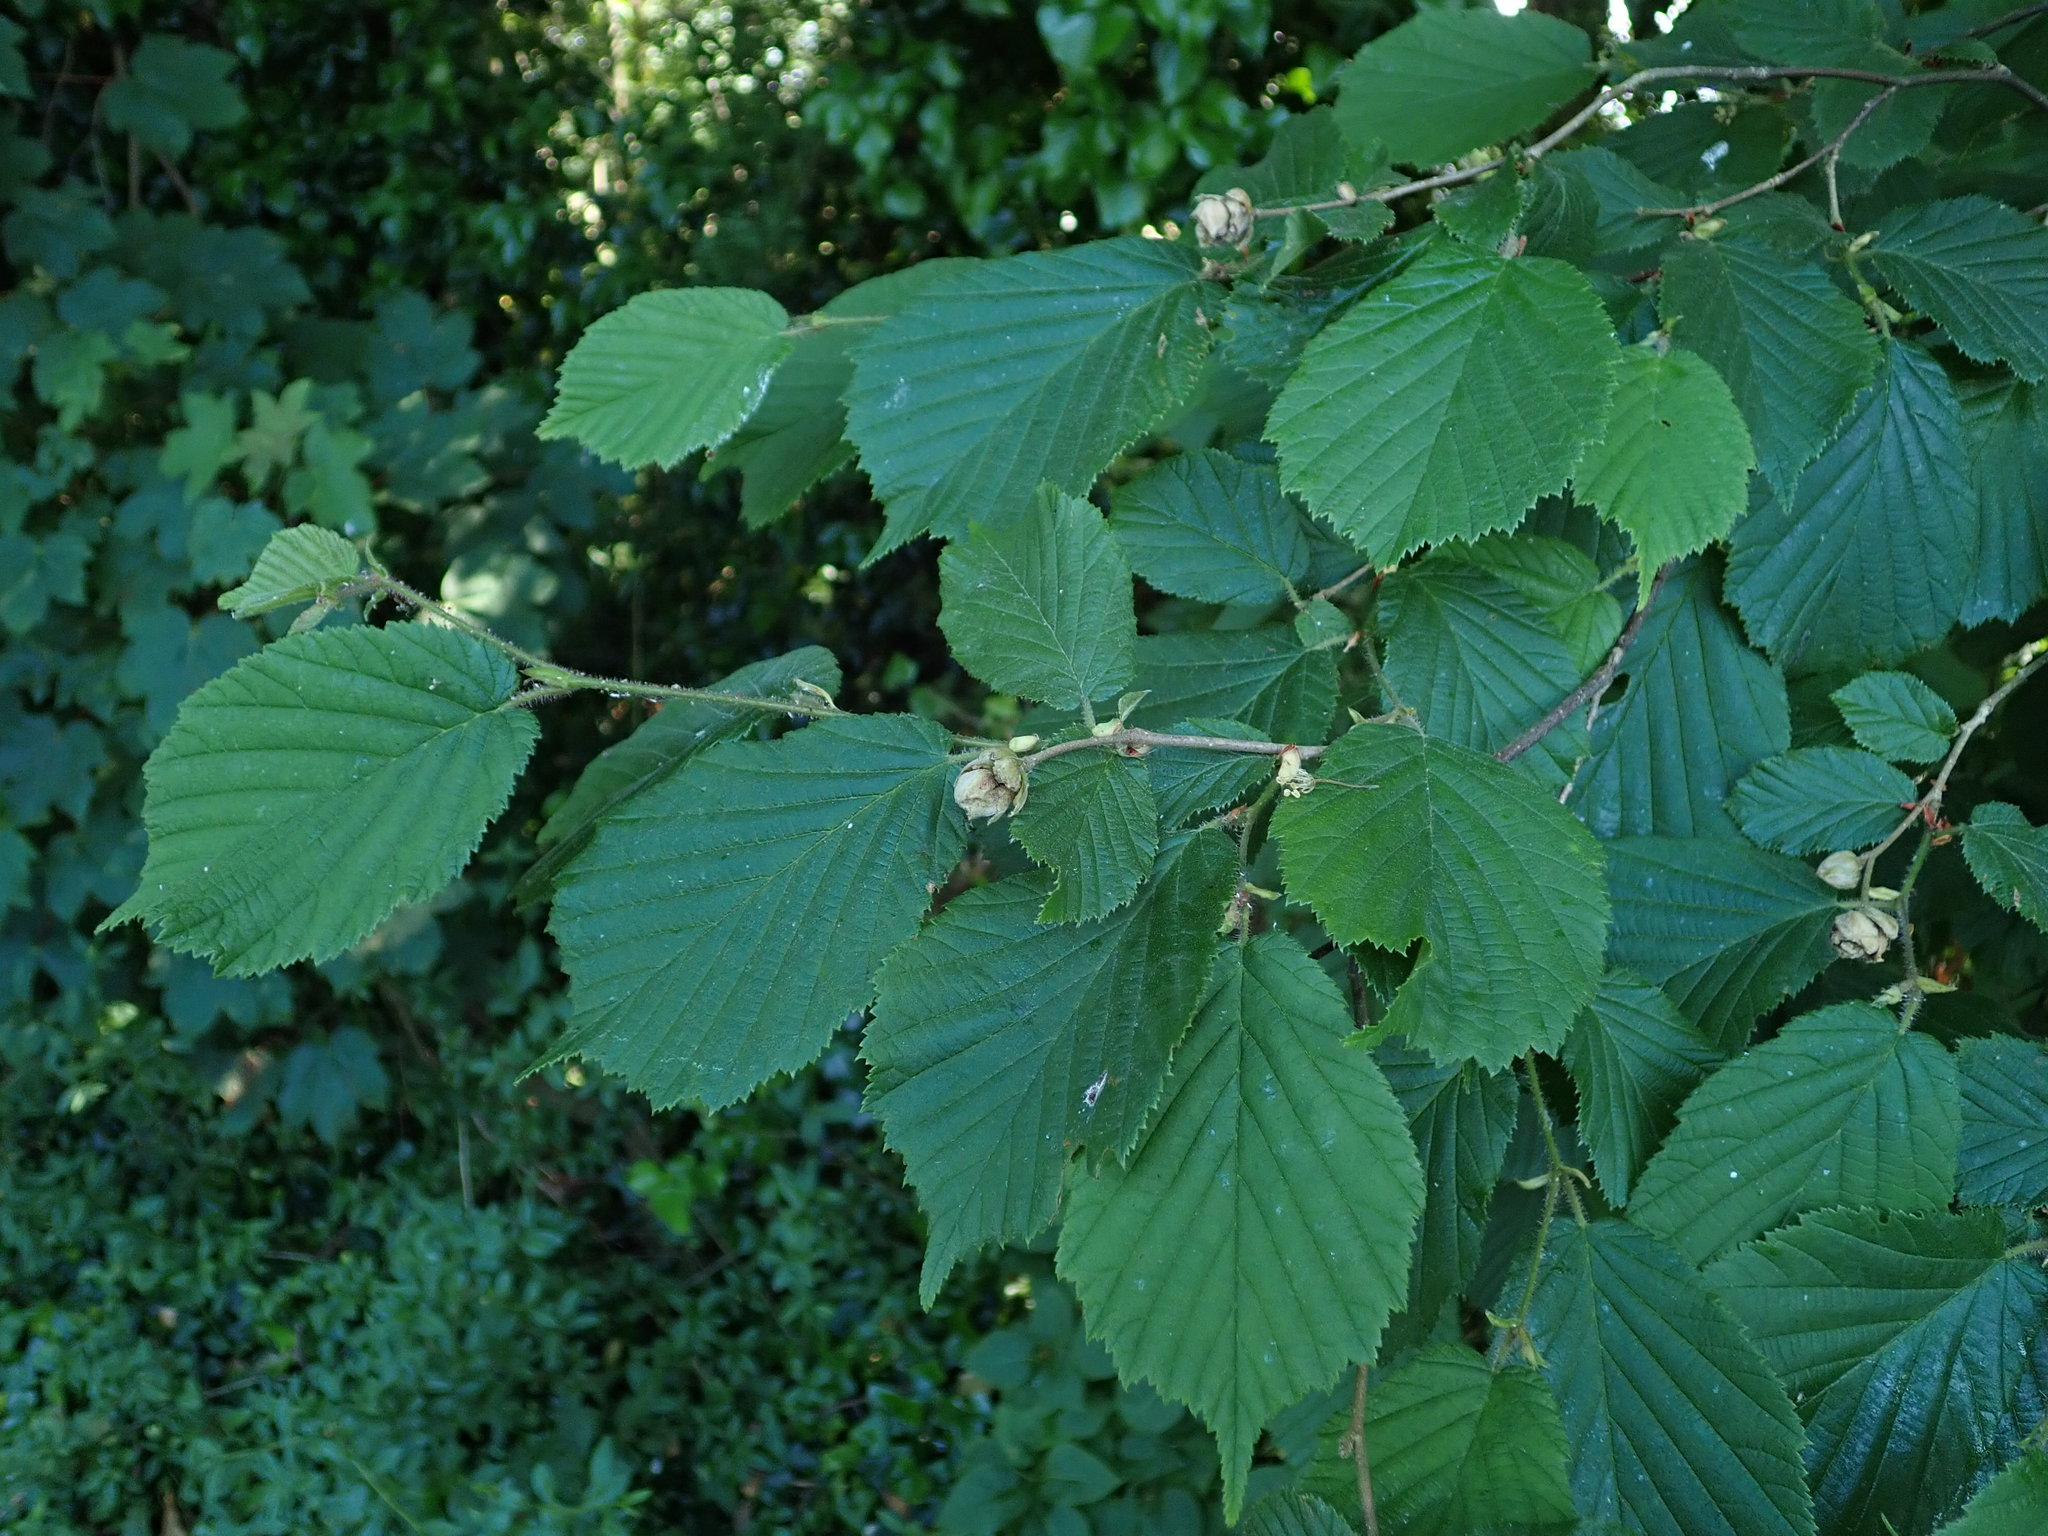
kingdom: Plantae
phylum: Tracheophyta
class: Magnoliopsida
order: Fagales
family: Betulaceae
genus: Corylus
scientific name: Corylus avellana
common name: European hazel
